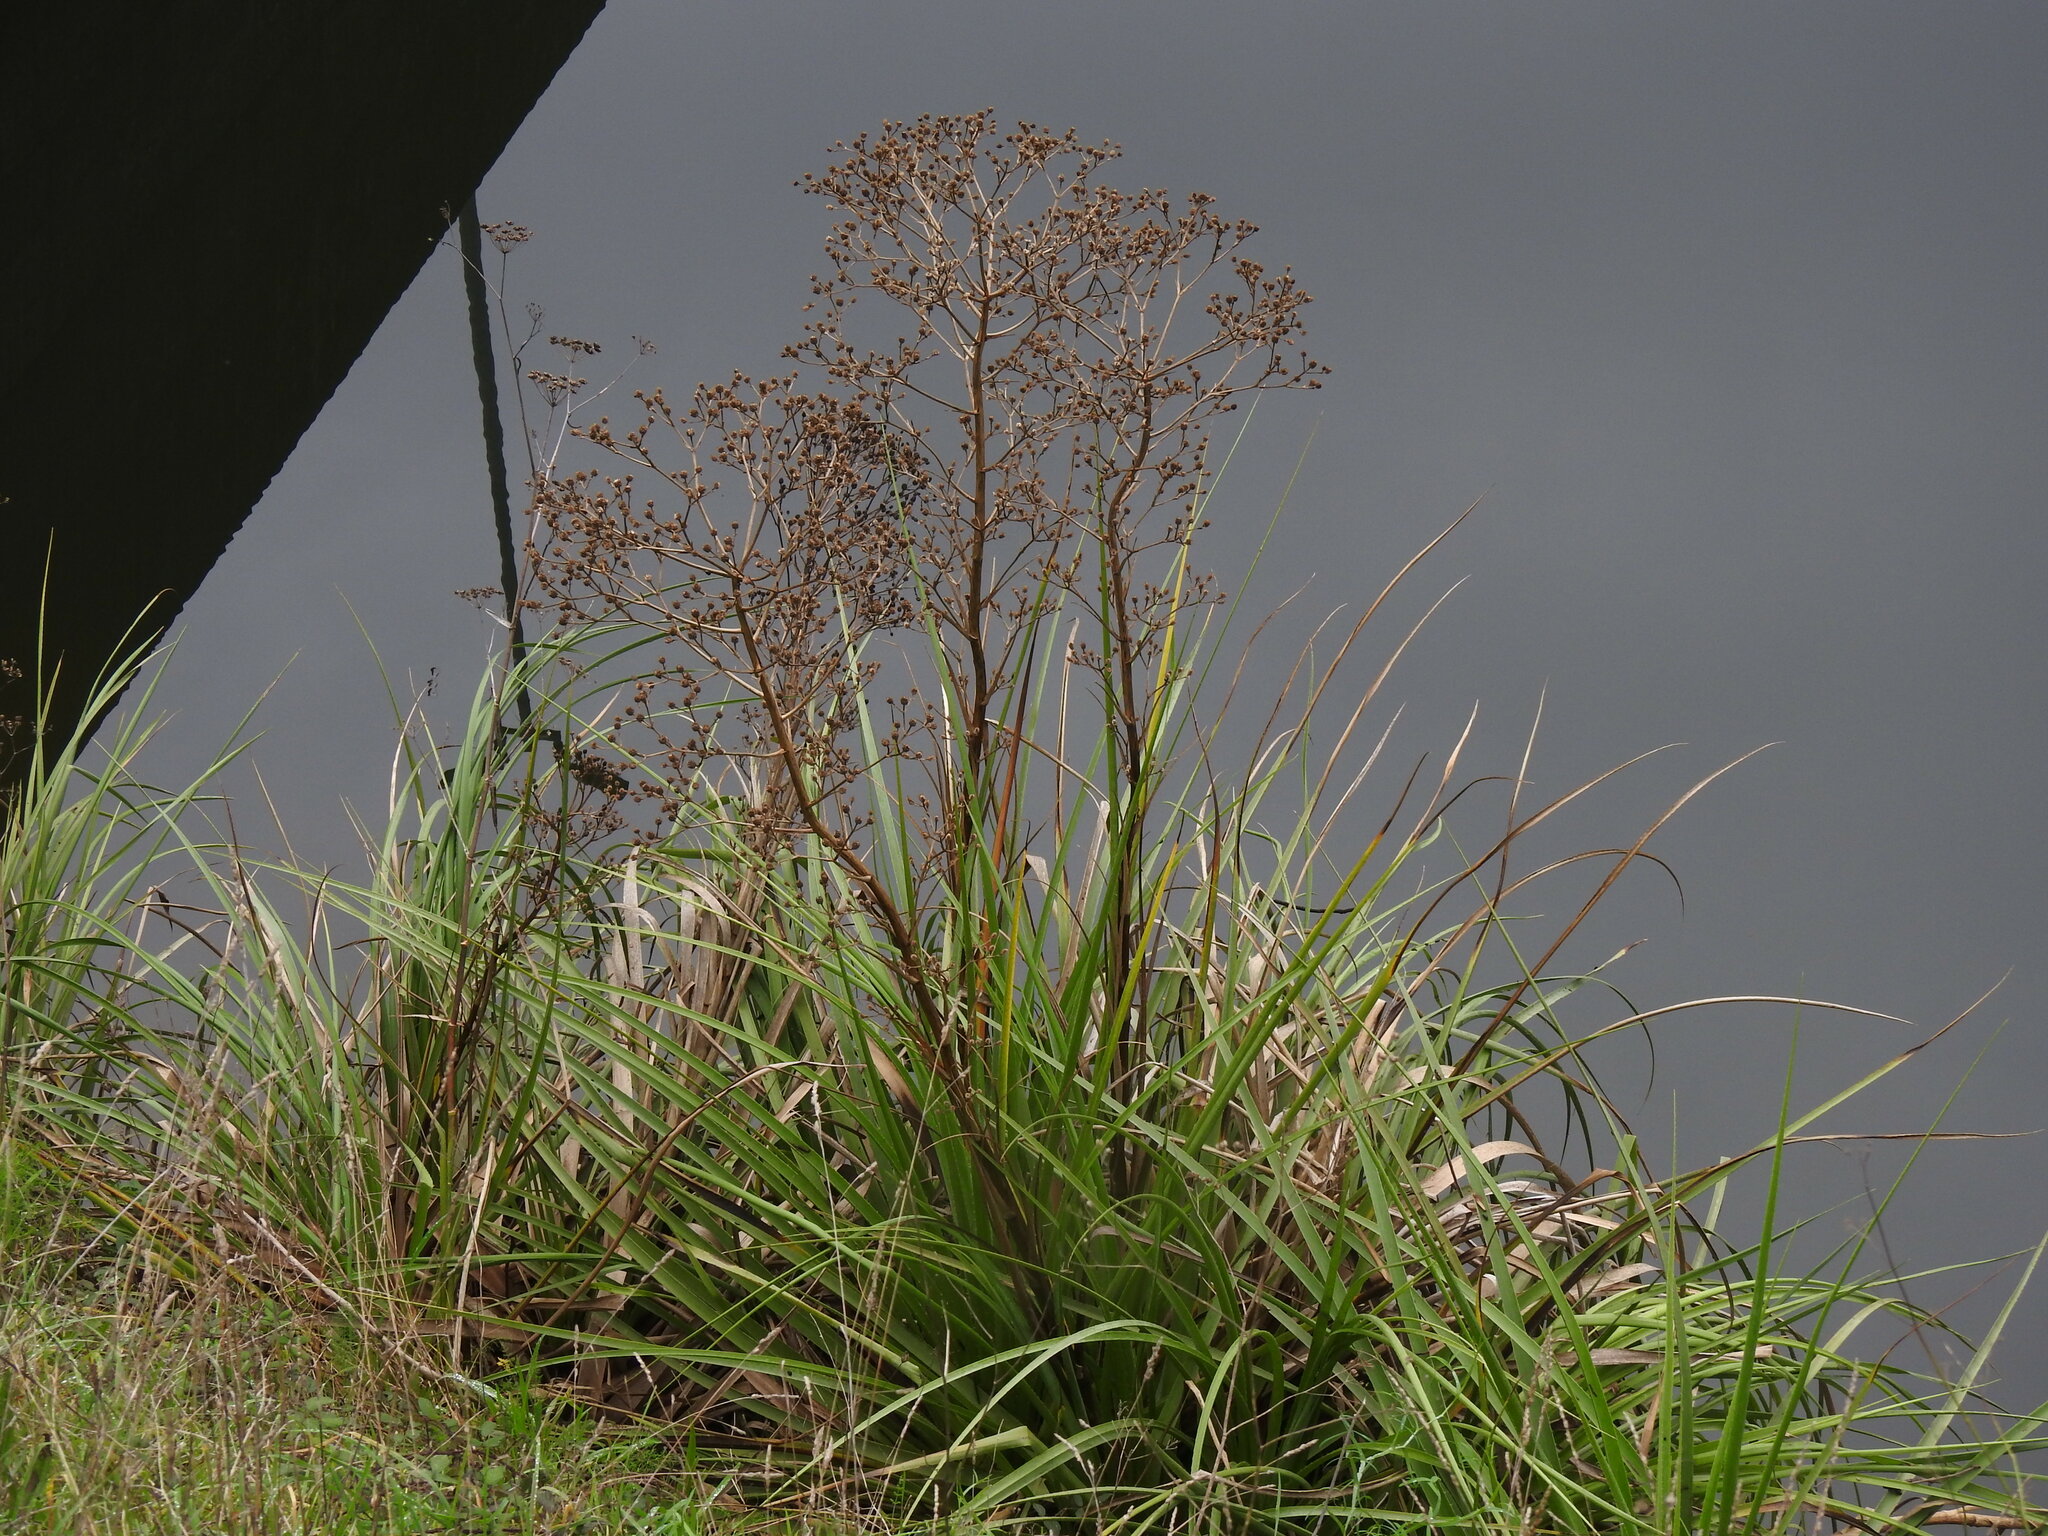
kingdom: Plantae
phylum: Tracheophyta
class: Magnoliopsida
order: Apiales
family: Apiaceae
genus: Eryngium
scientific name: Eryngium pandanifolium
